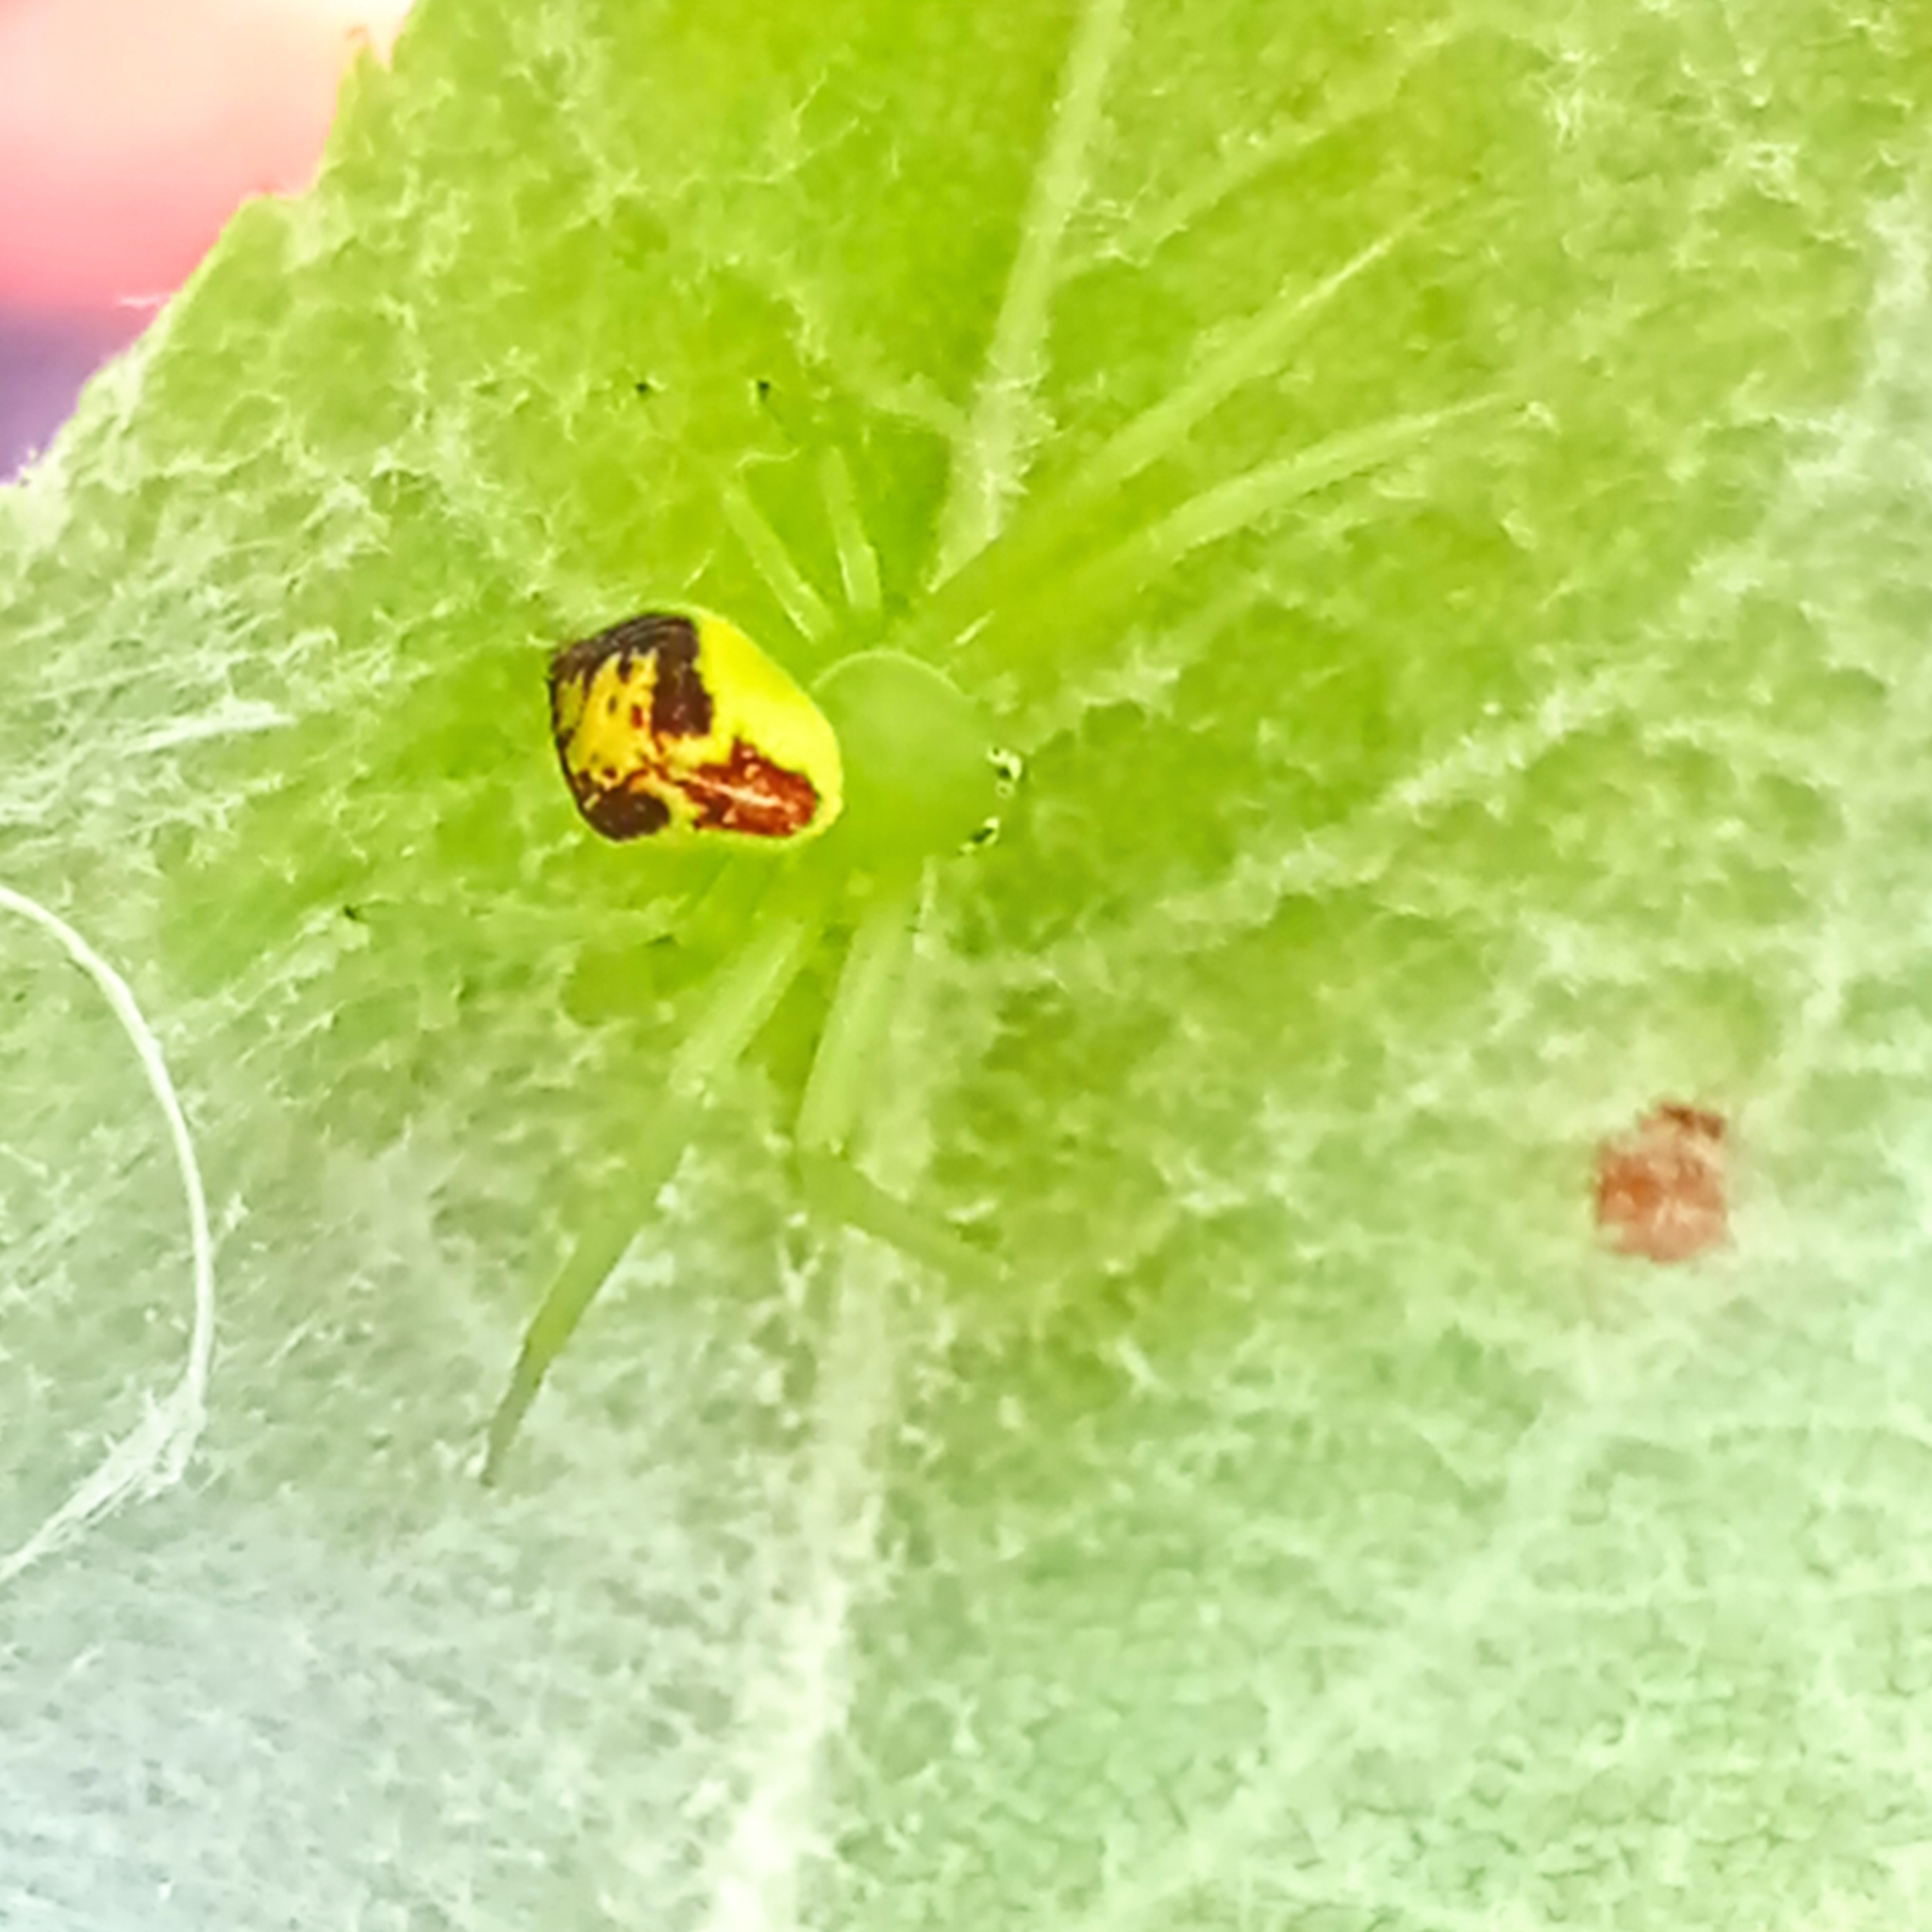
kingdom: Animalia
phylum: Arthropoda
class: Arachnida
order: Araneae
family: Thomisidae
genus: Ebrechtella
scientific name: Ebrechtella tricuspidata
